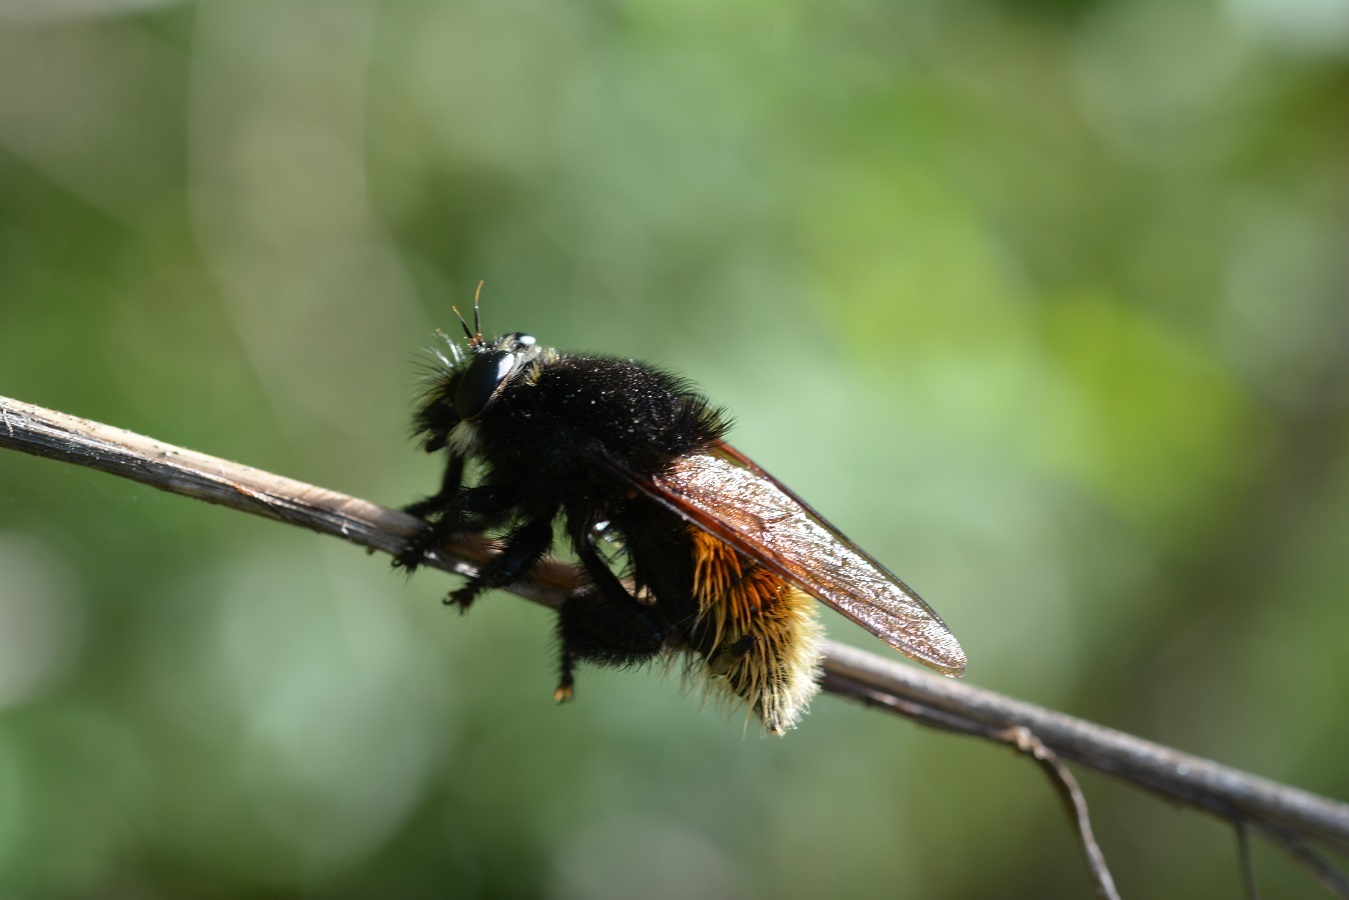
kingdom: Animalia
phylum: Arthropoda
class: Insecta
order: Diptera
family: Asilidae
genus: Mallophora
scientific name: Mallophora minos
